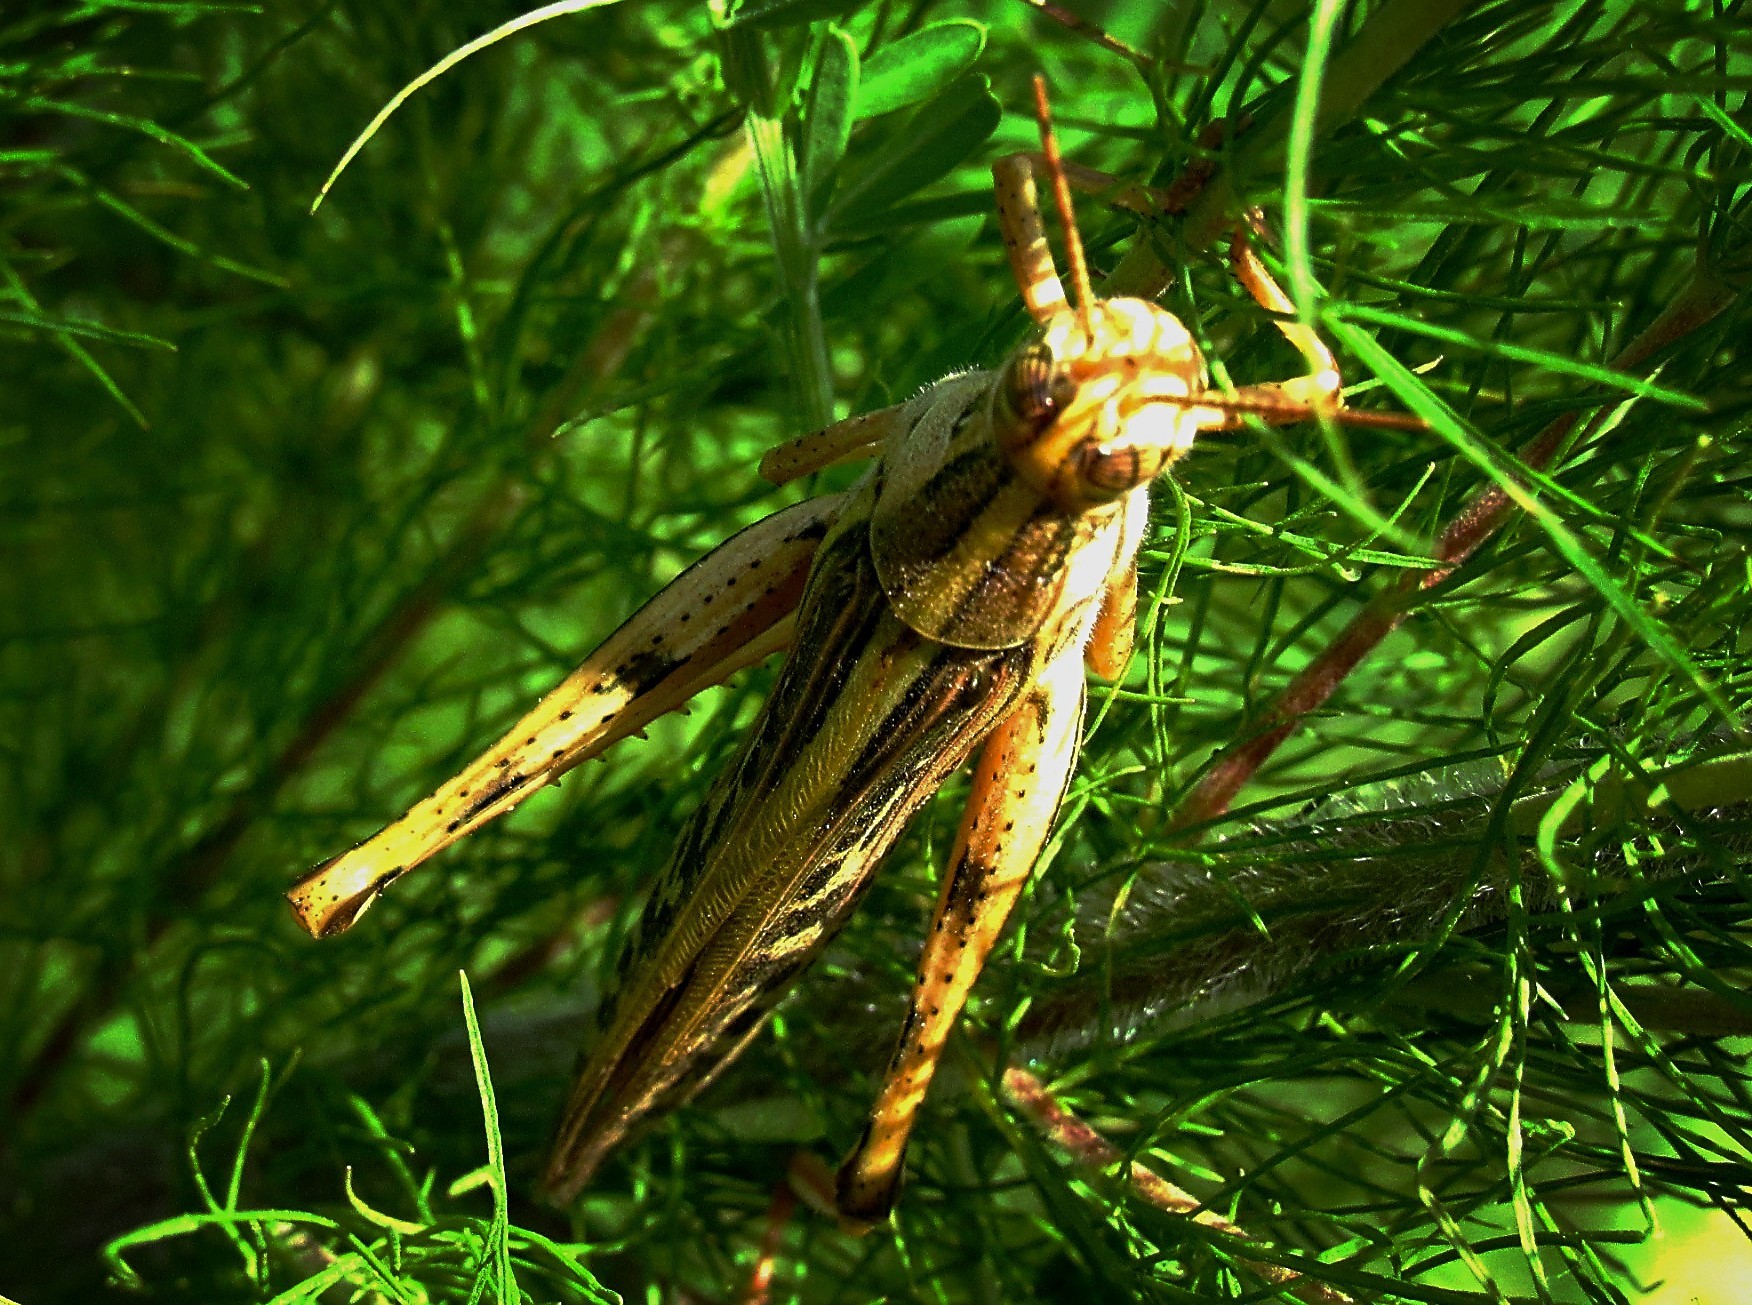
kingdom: Animalia
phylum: Arthropoda
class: Insecta
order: Orthoptera
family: Acrididae
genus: Schistocerca
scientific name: Schistocerca americana
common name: American bird locust
